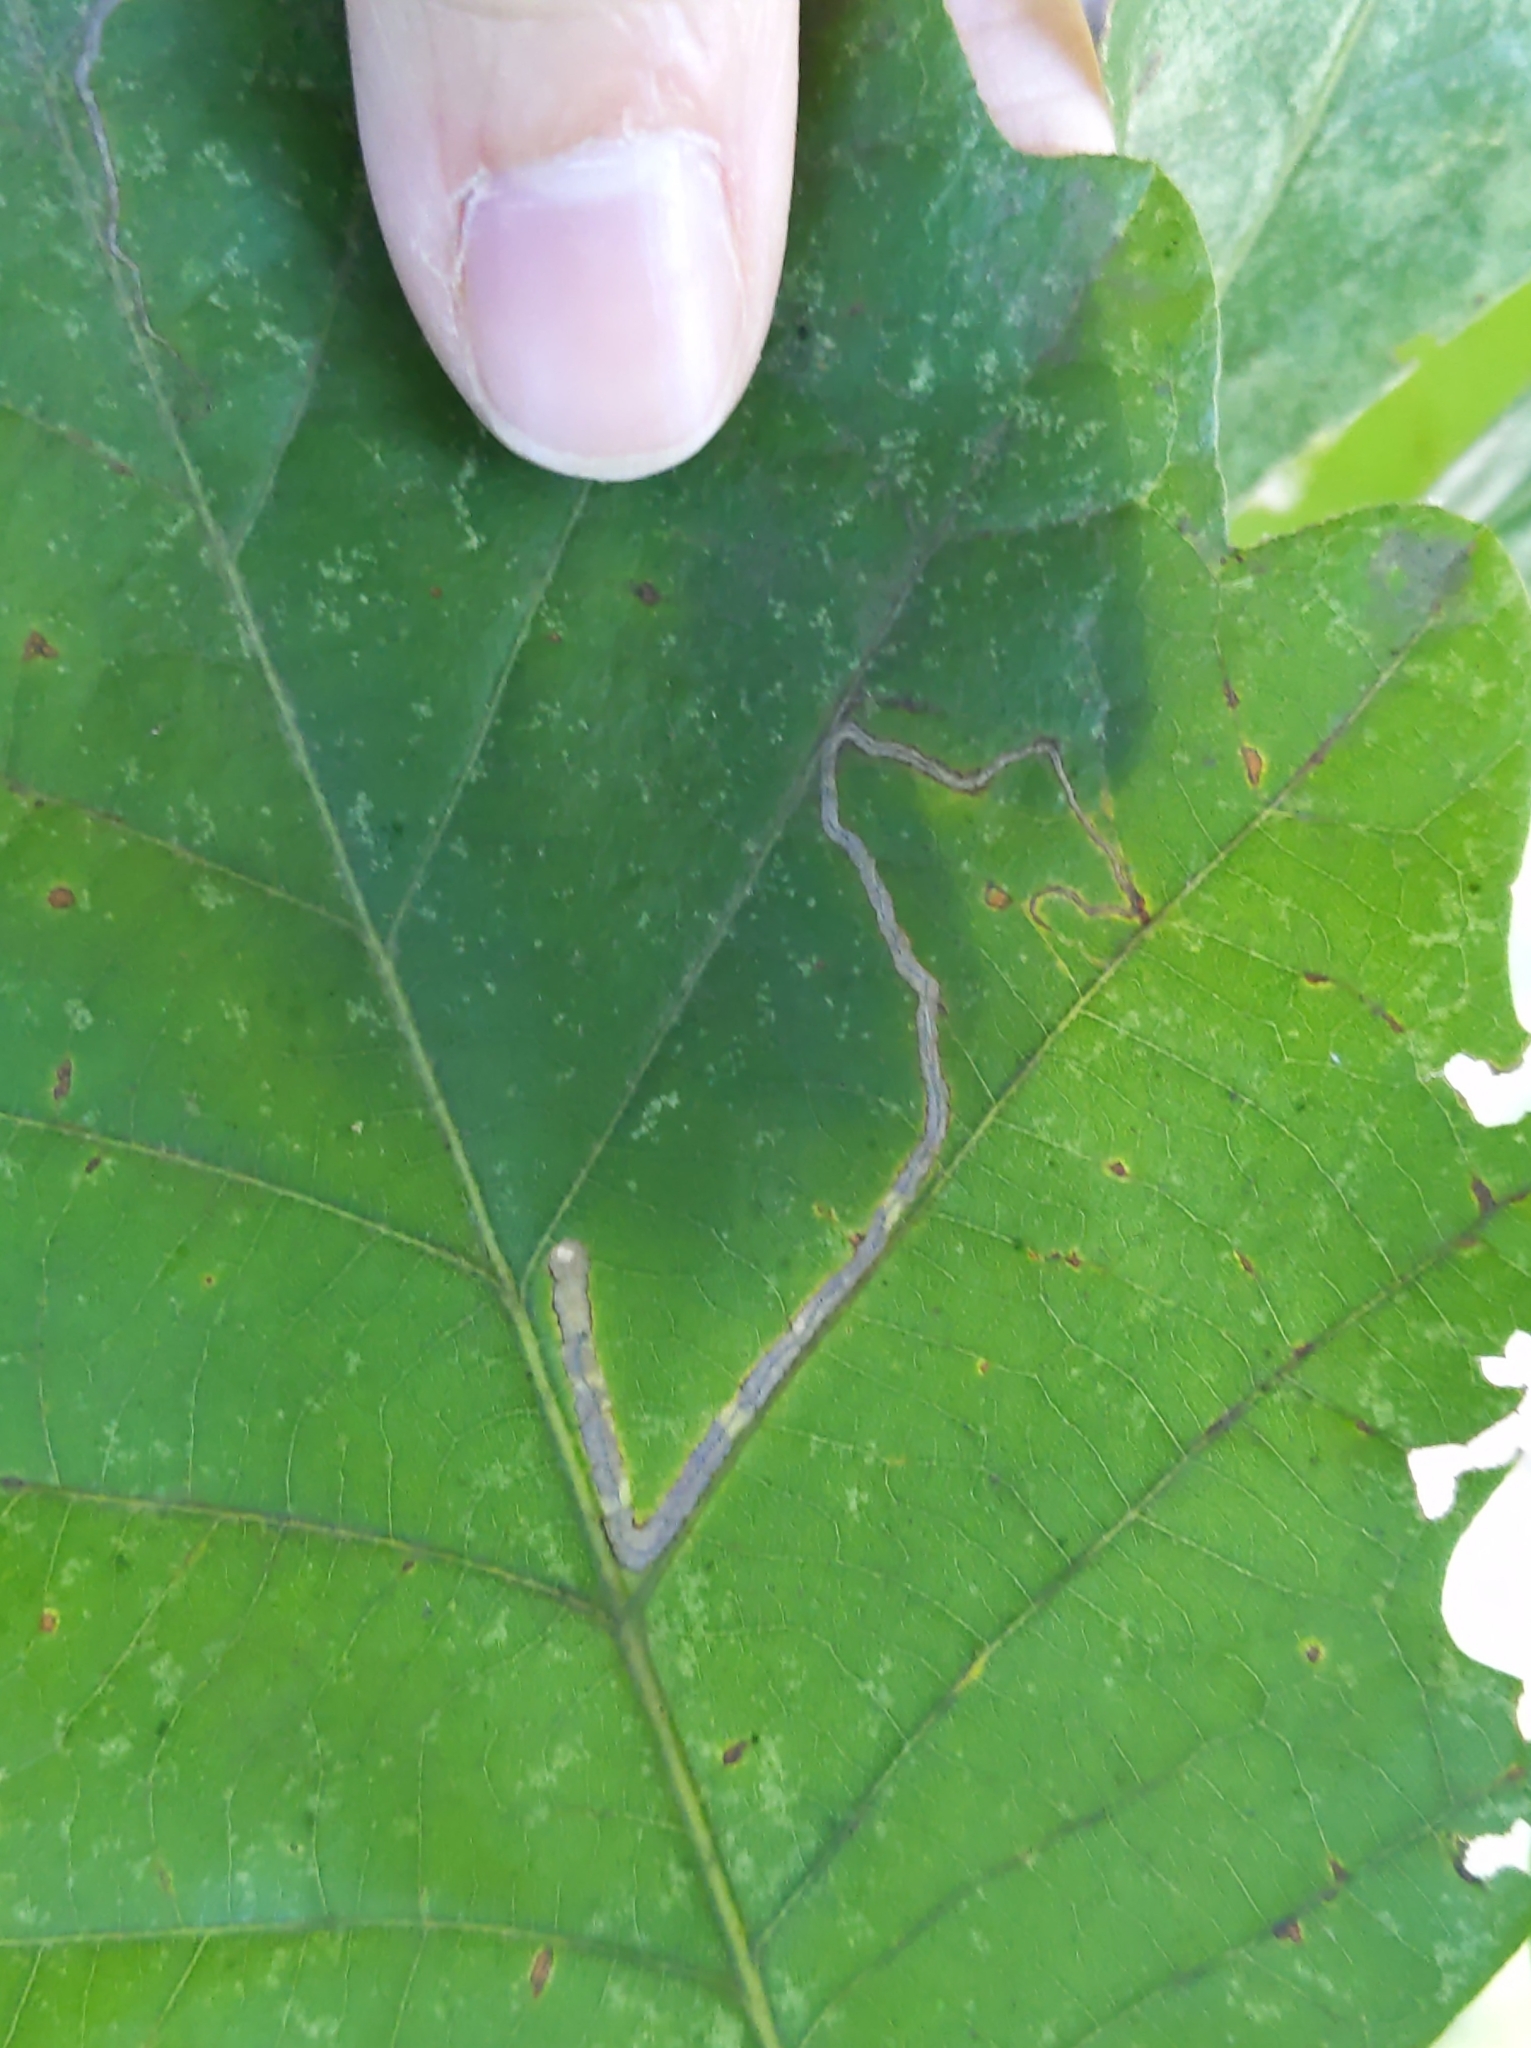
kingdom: Animalia
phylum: Arthropoda
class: Insecta
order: Lepidoptera
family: Nepticulidae
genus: Stigmella
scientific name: Stigmella
